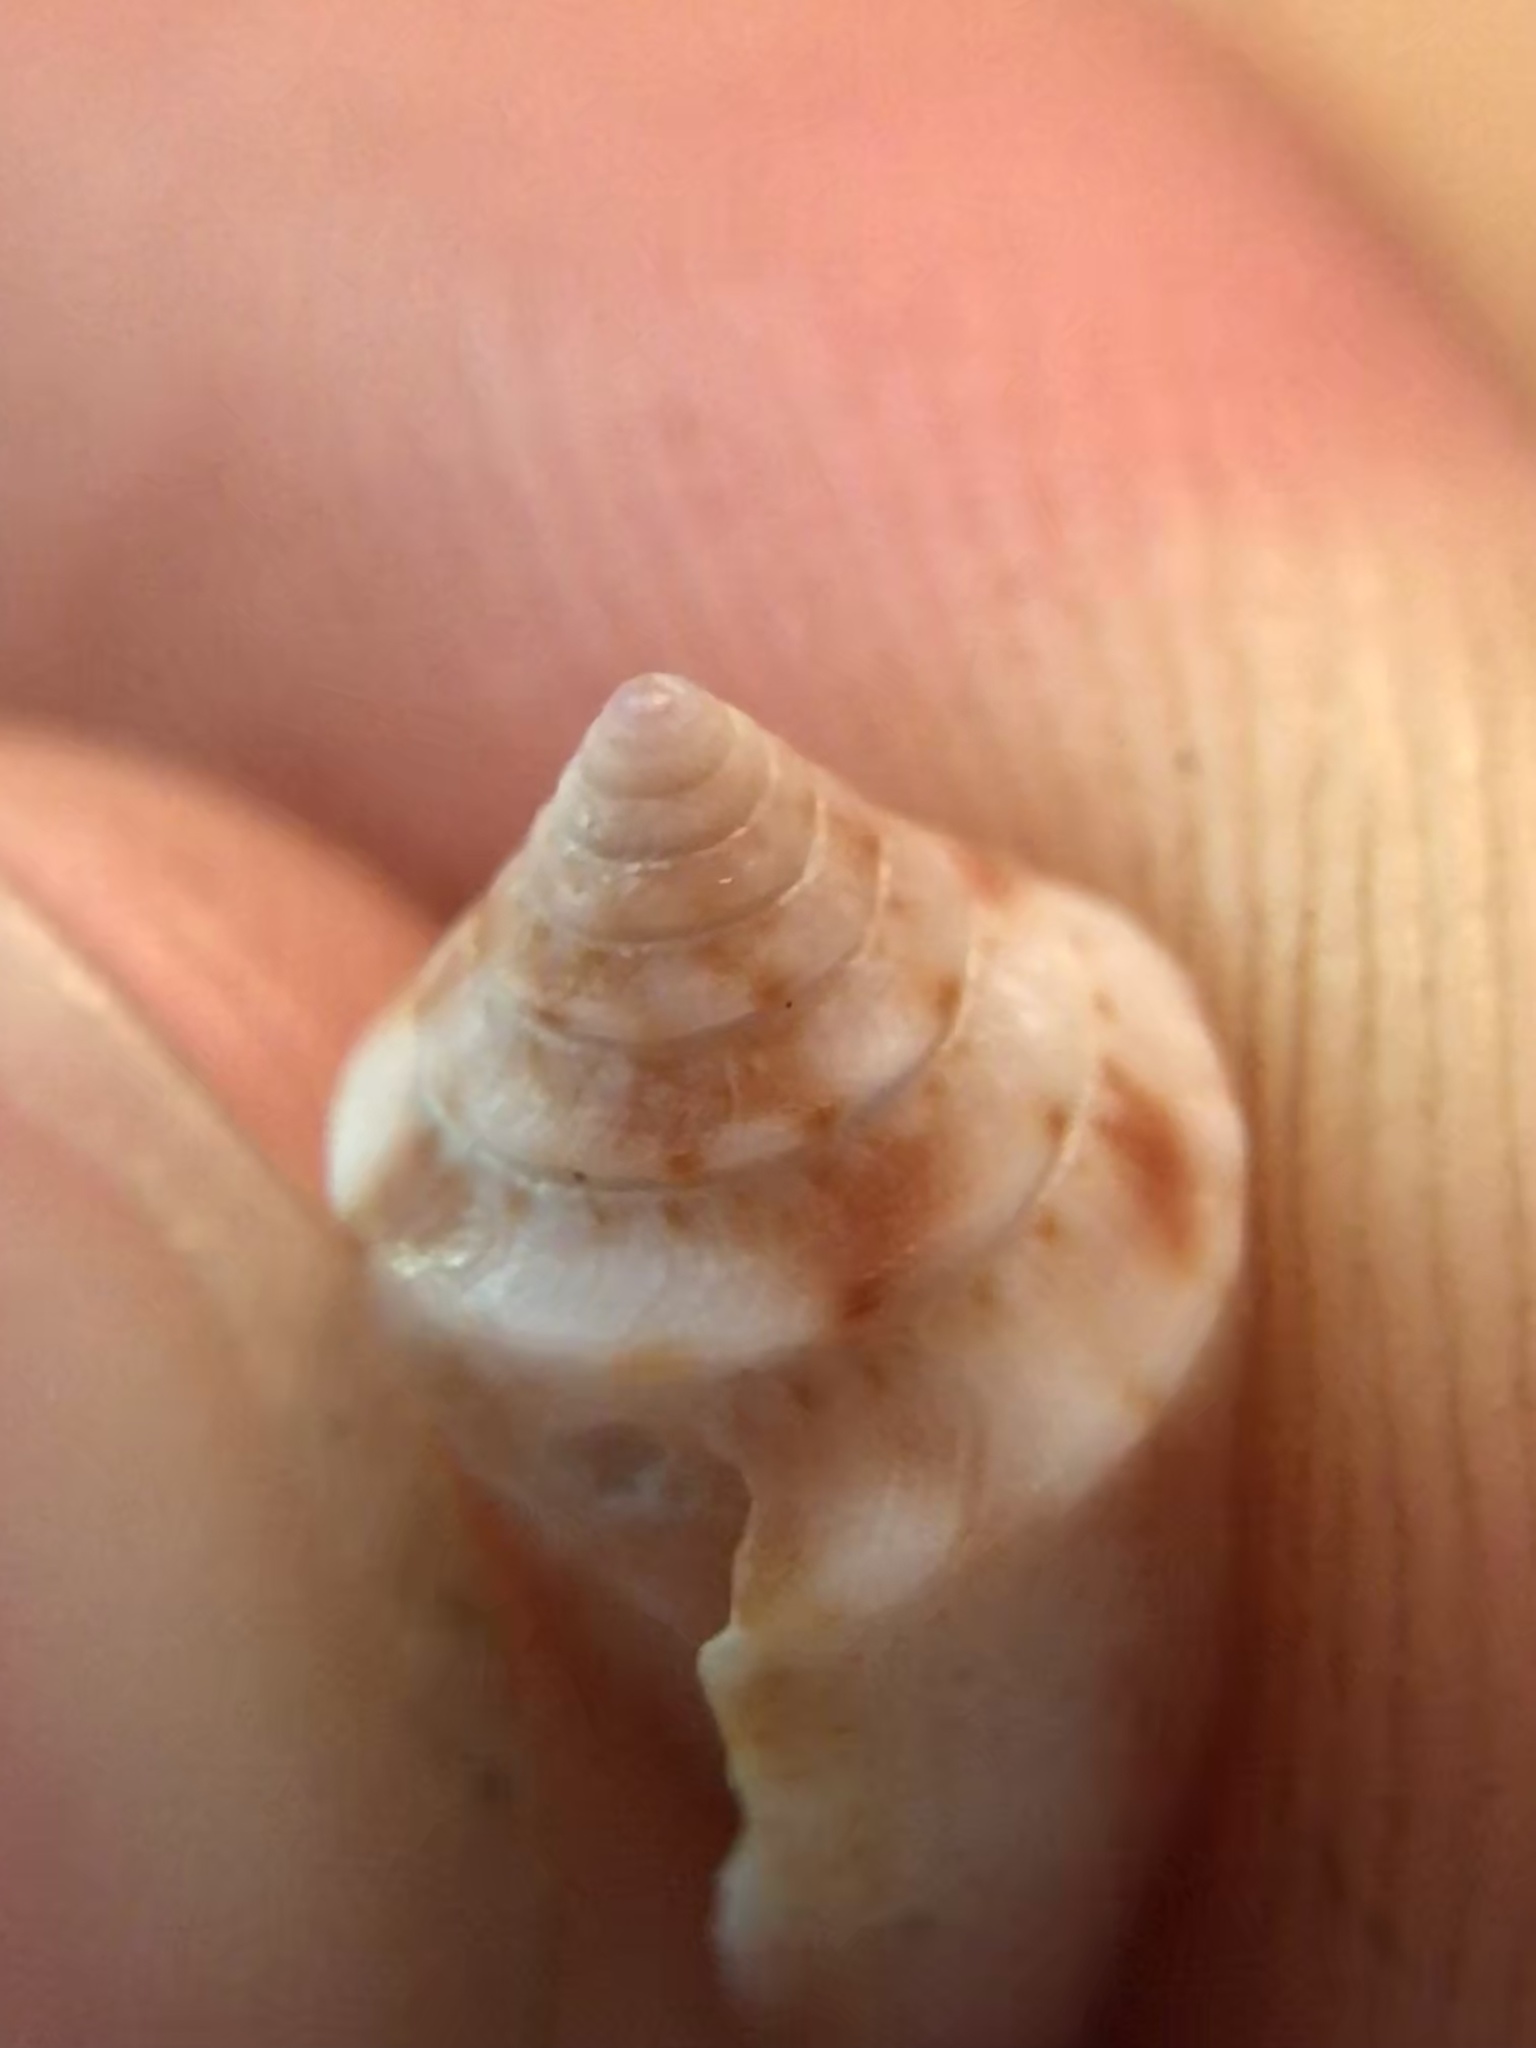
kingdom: Animalia
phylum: Mollusca
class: Gastropoda
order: Neogastropoda
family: Conidae
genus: Conasprella
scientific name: Conasprella jaspidea
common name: Jasper cone
